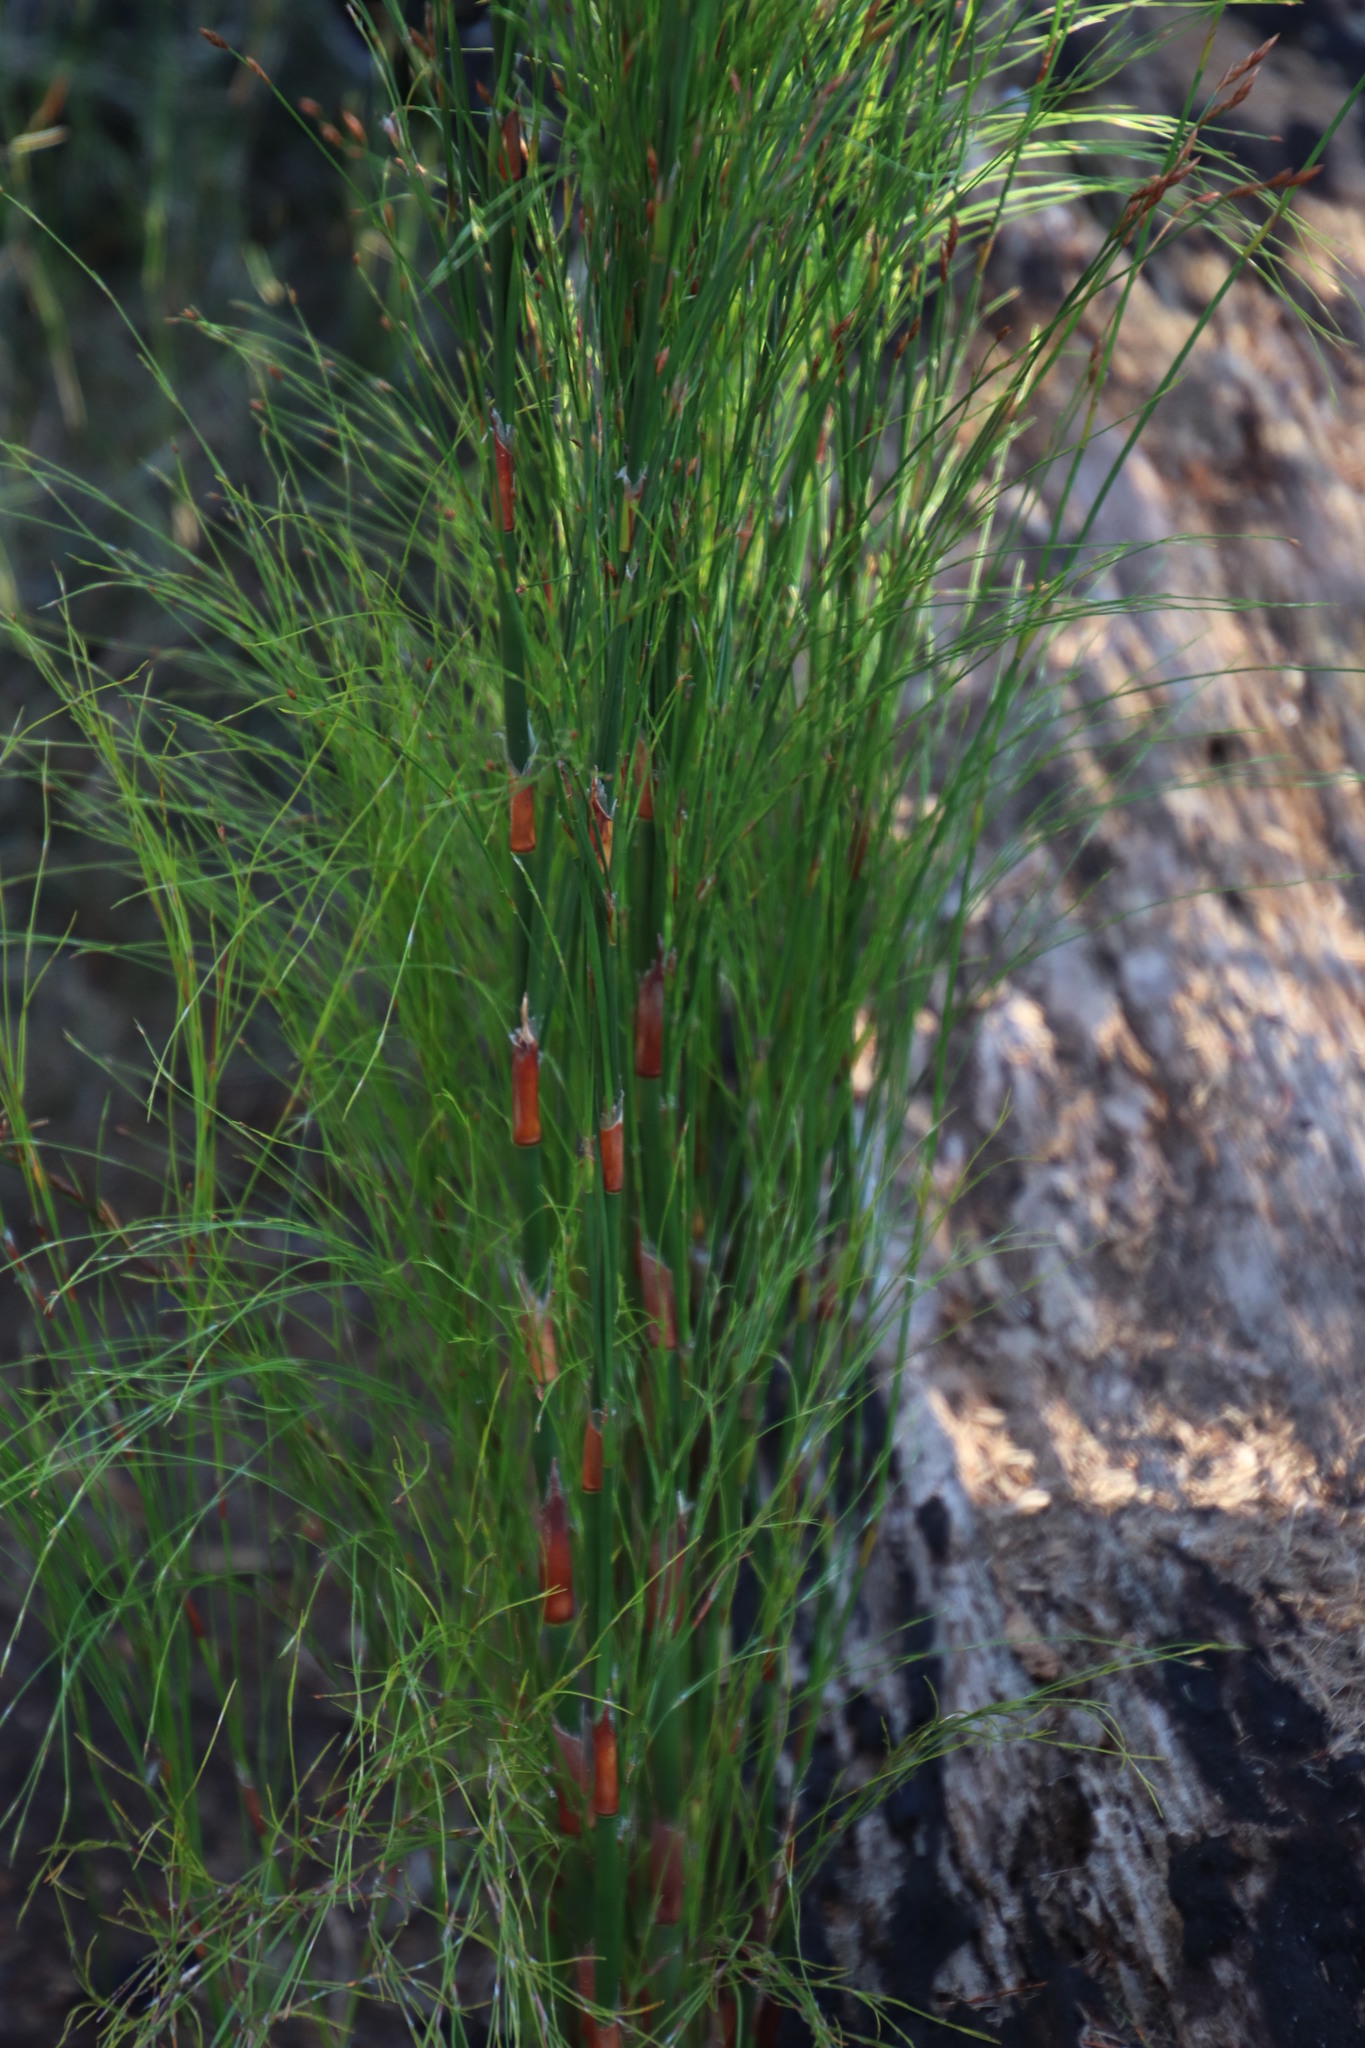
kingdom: Plantae
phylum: Tracheophyta
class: Liliopsida
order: Poales
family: Restionaceae
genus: Restio
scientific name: Restio multiflorus
